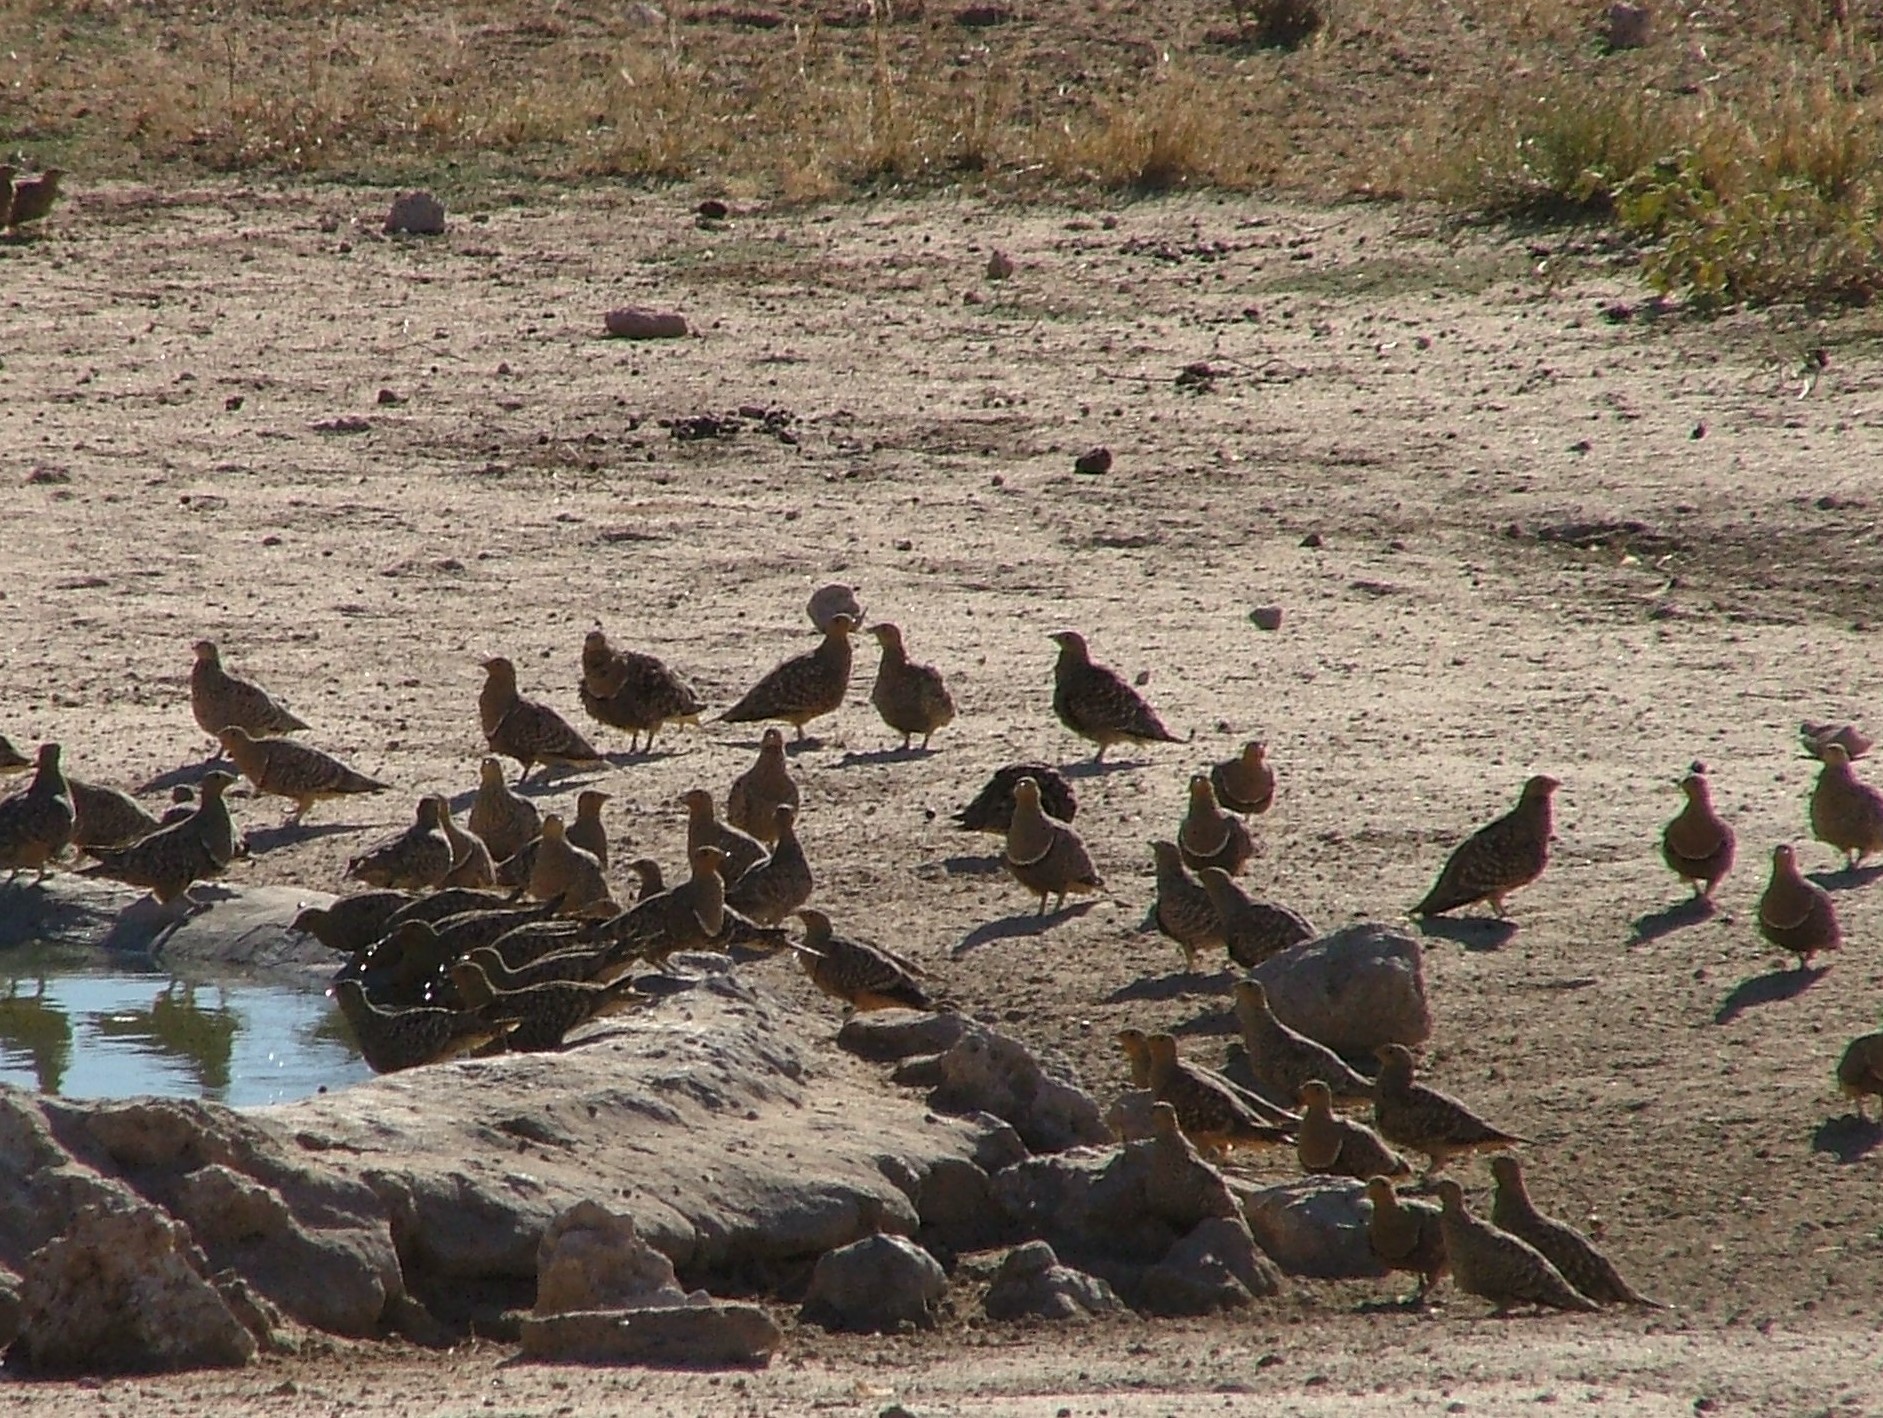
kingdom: Animalia
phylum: Chordata
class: Aves
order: Pteroclidiformes
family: Pteroclididae
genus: Pterocles
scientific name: Pterocles namaqua
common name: Namaqua sandgrouse
